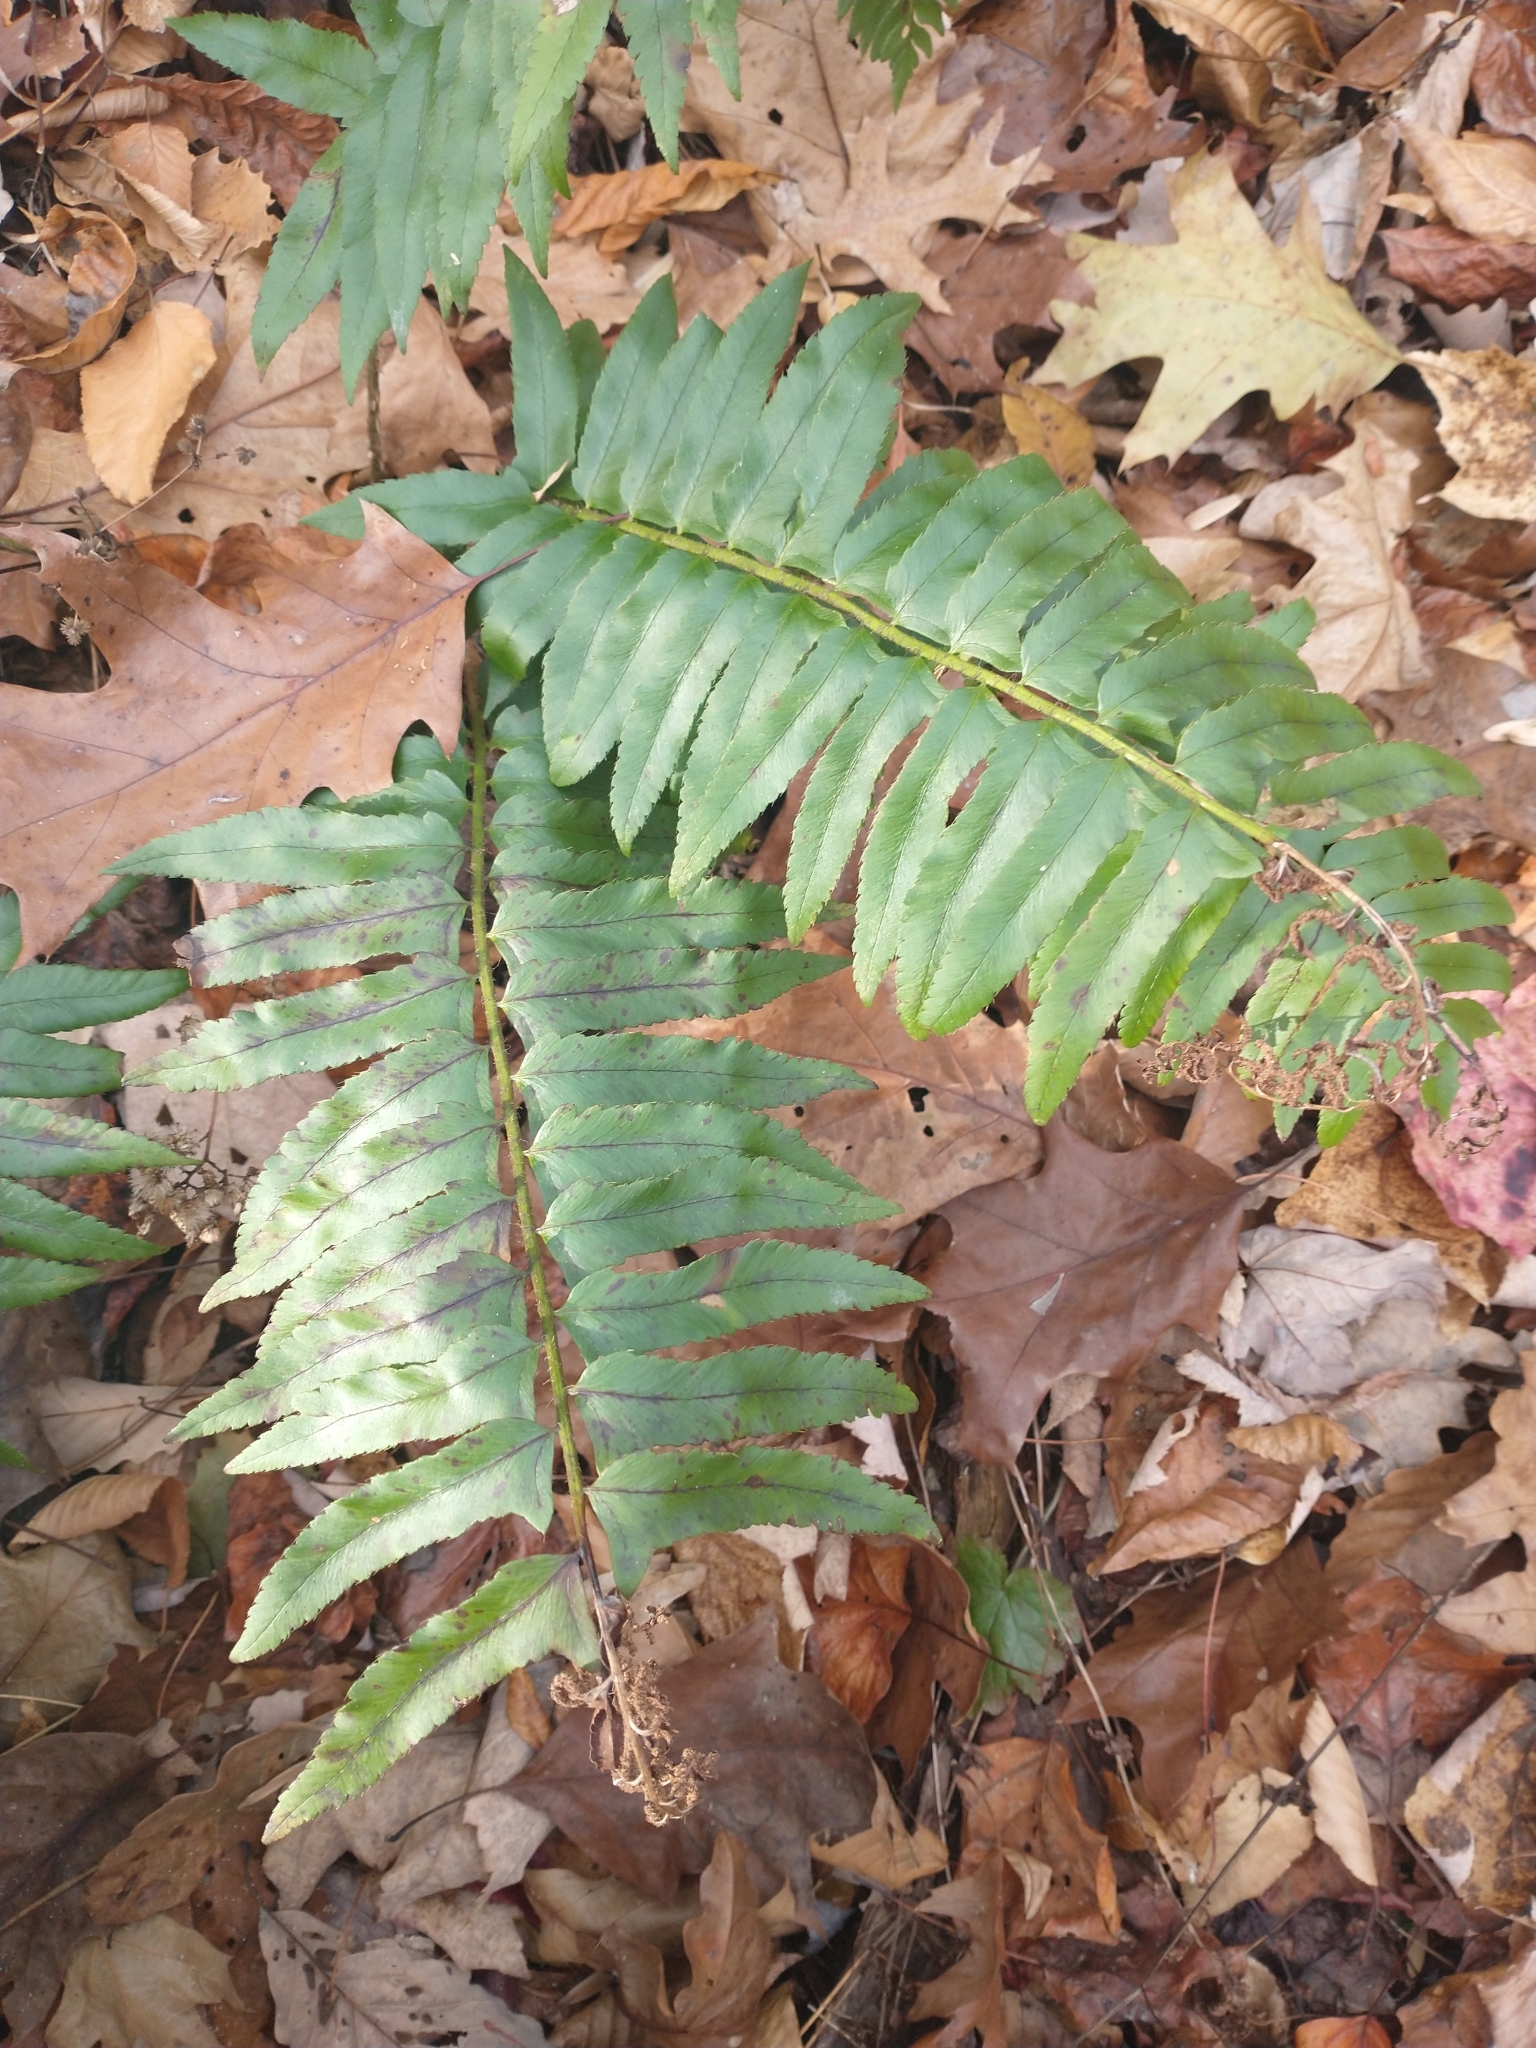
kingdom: Plantae
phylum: Tracheophyta
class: Polypodiopsida
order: Polypodiales
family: Dryopteridaceae
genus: Polystichum
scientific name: Polystichum acrostichoides
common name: Christmas fern
